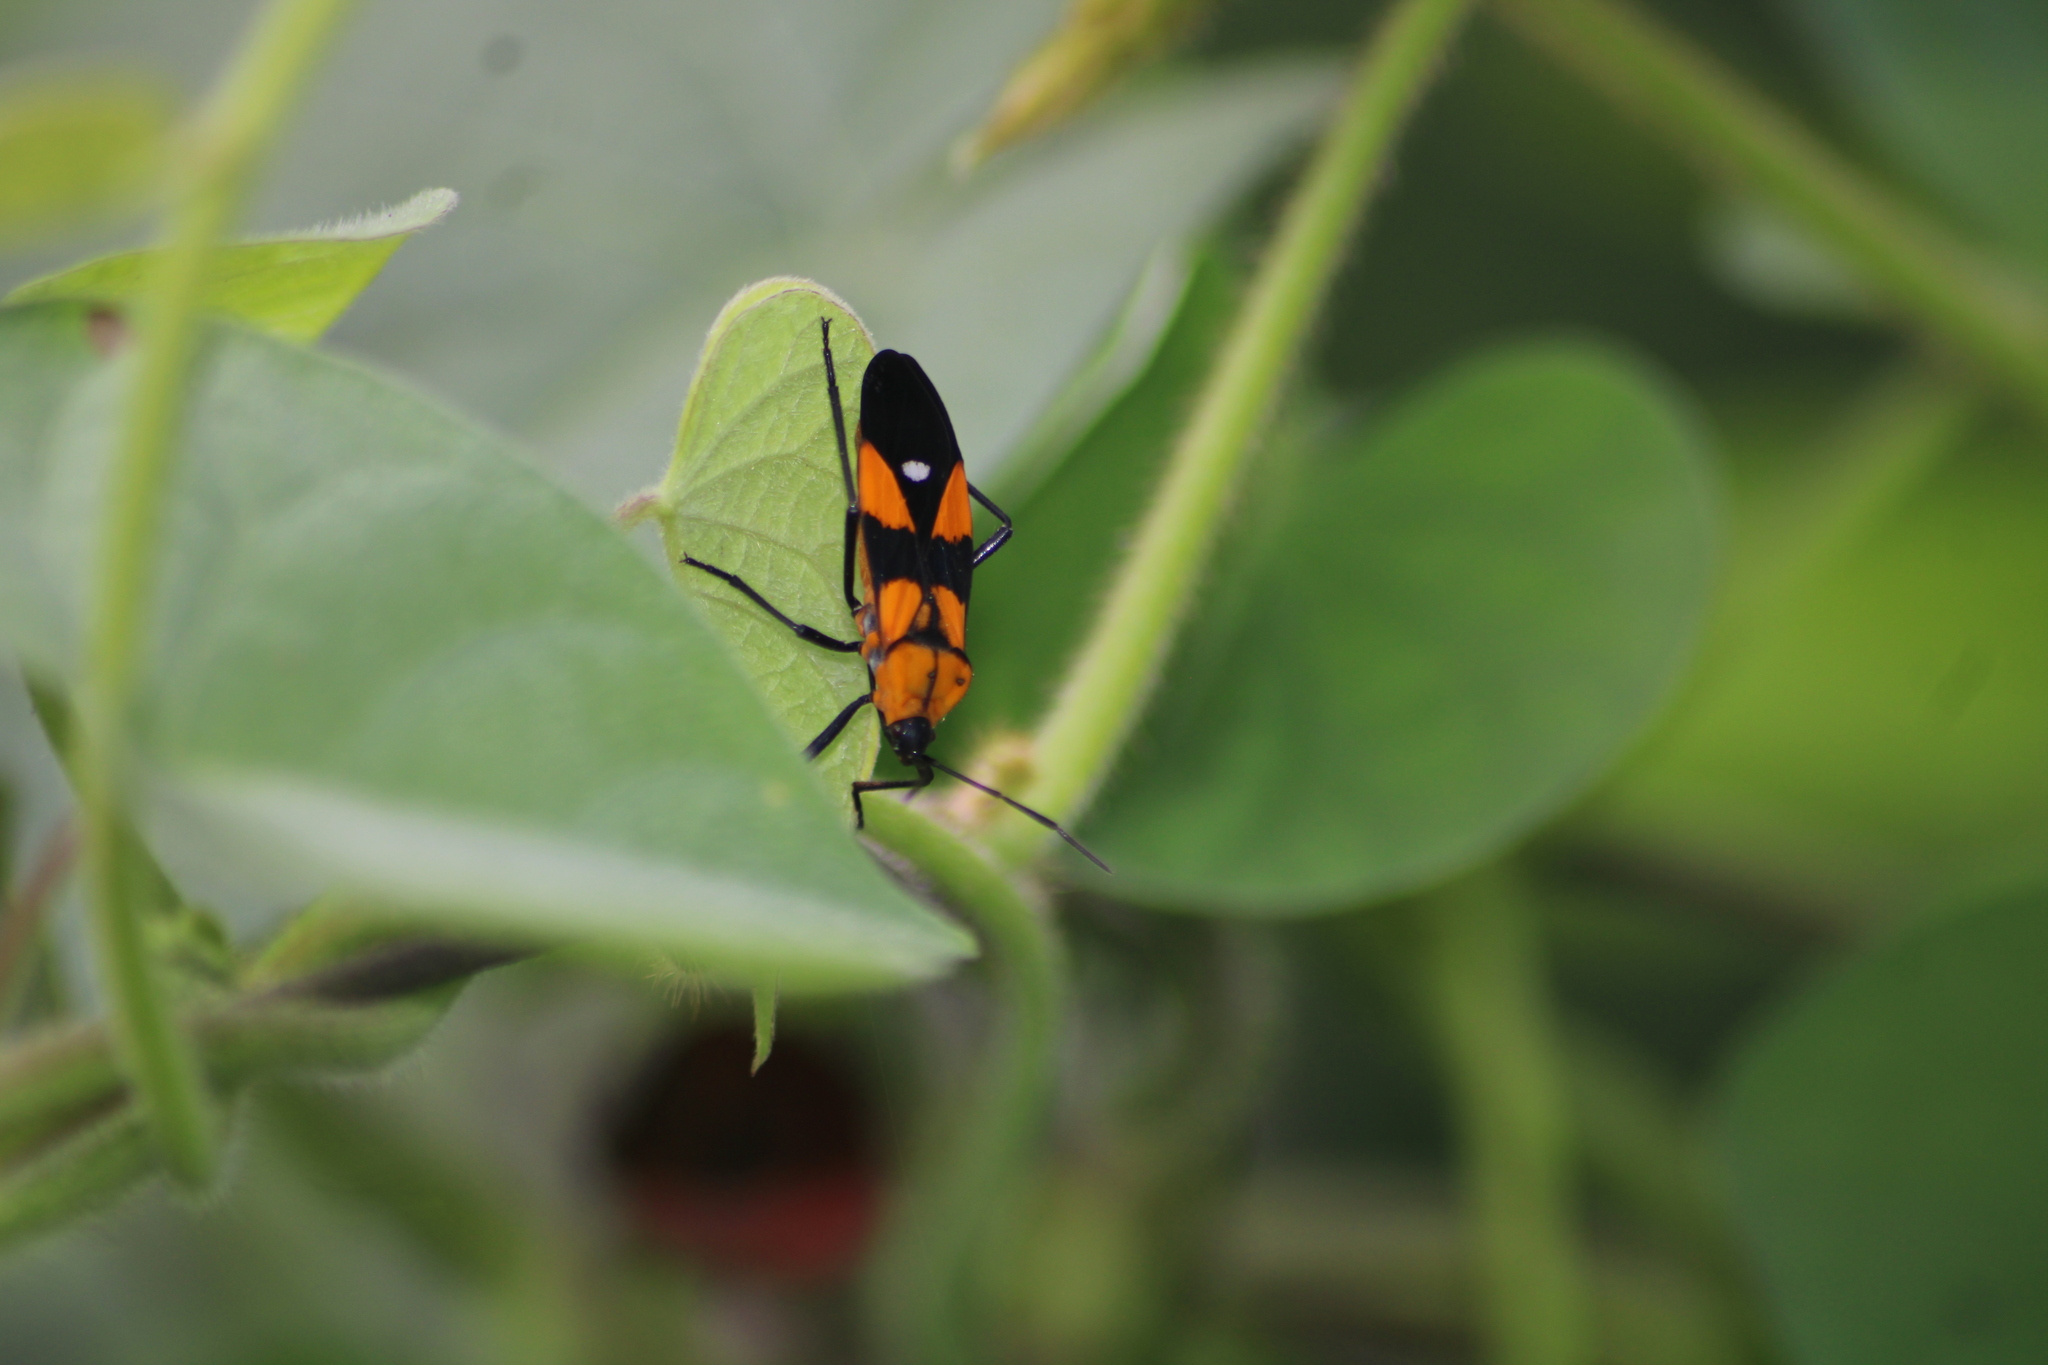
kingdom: Animalia
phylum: Arthropoda
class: Insecta
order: Hemiptera
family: Lygaeidae
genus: Oncopeltus
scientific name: Oncopeltus spectabilis
